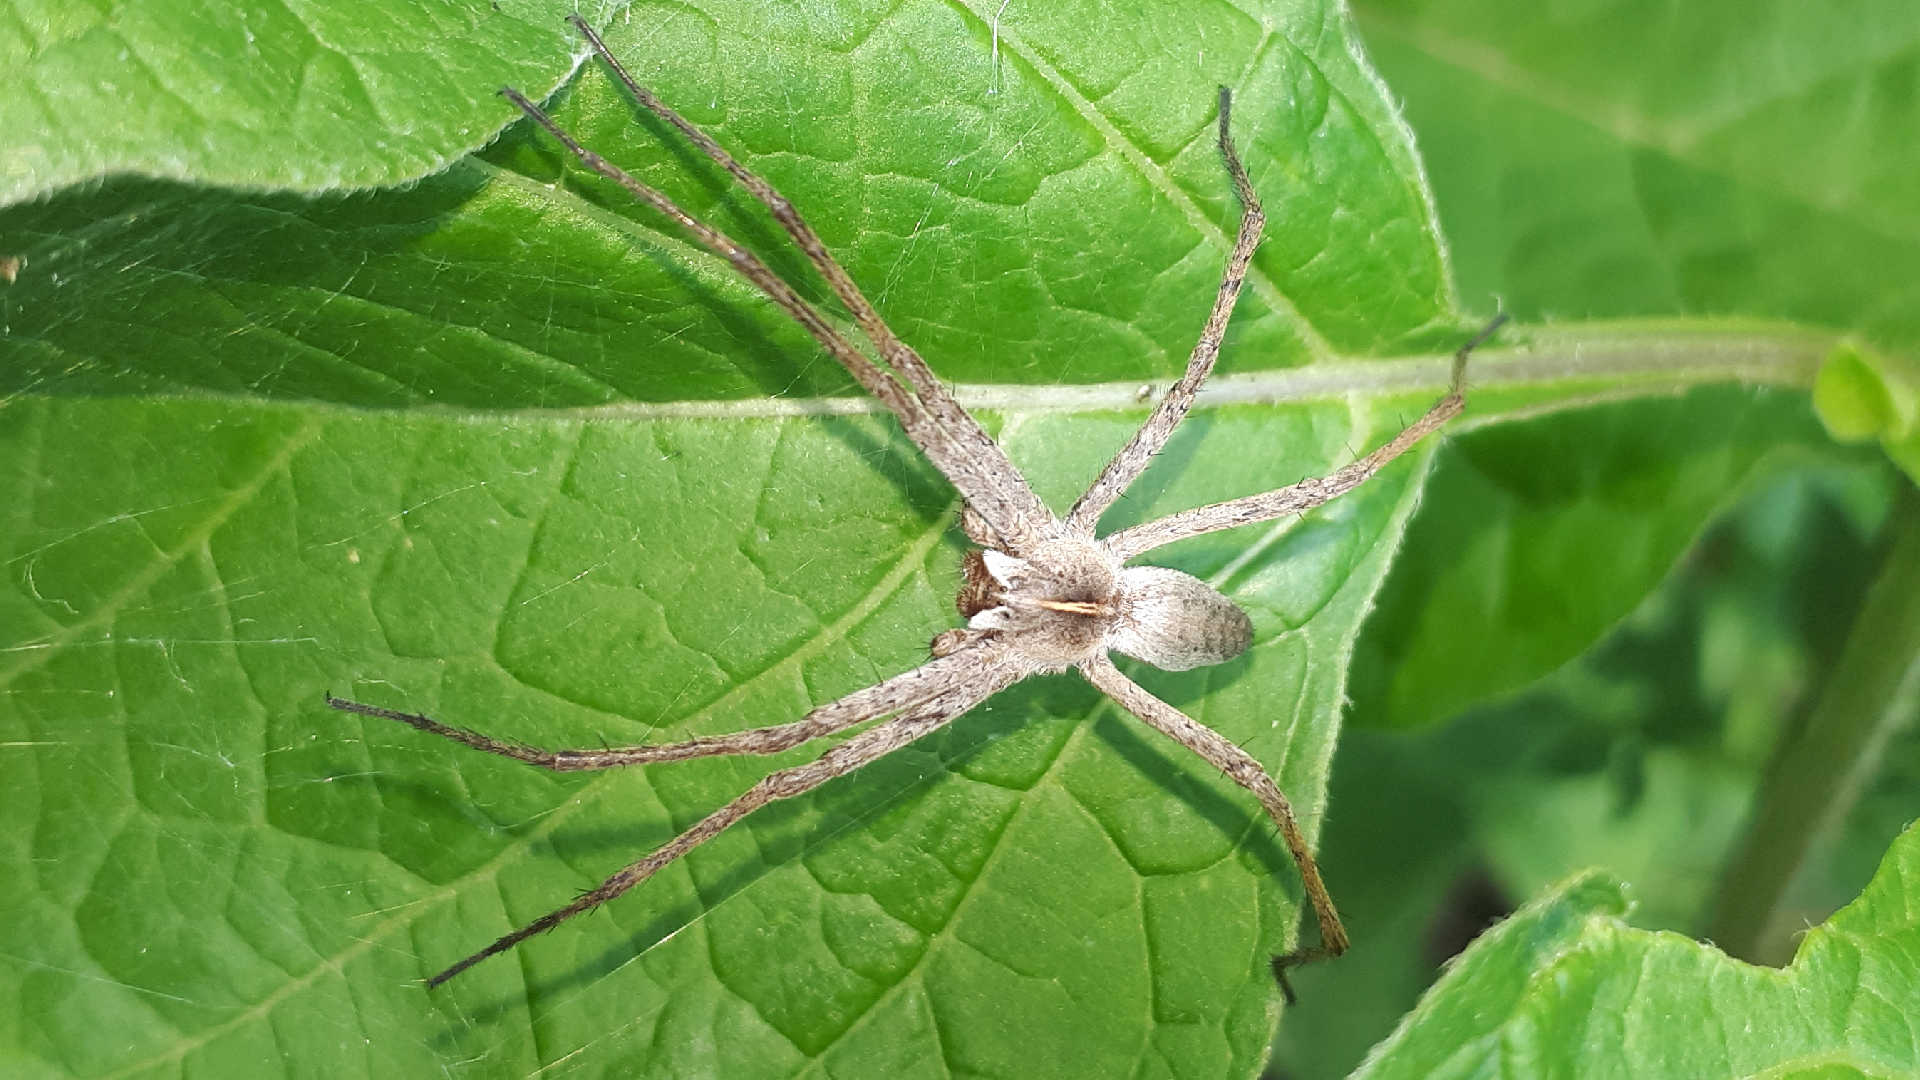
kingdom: Animalia
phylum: Arthropoda
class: Arachnida
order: Araneae
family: Pisauridae
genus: Pisaura
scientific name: Pisaura mirabilis
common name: Tent spider
